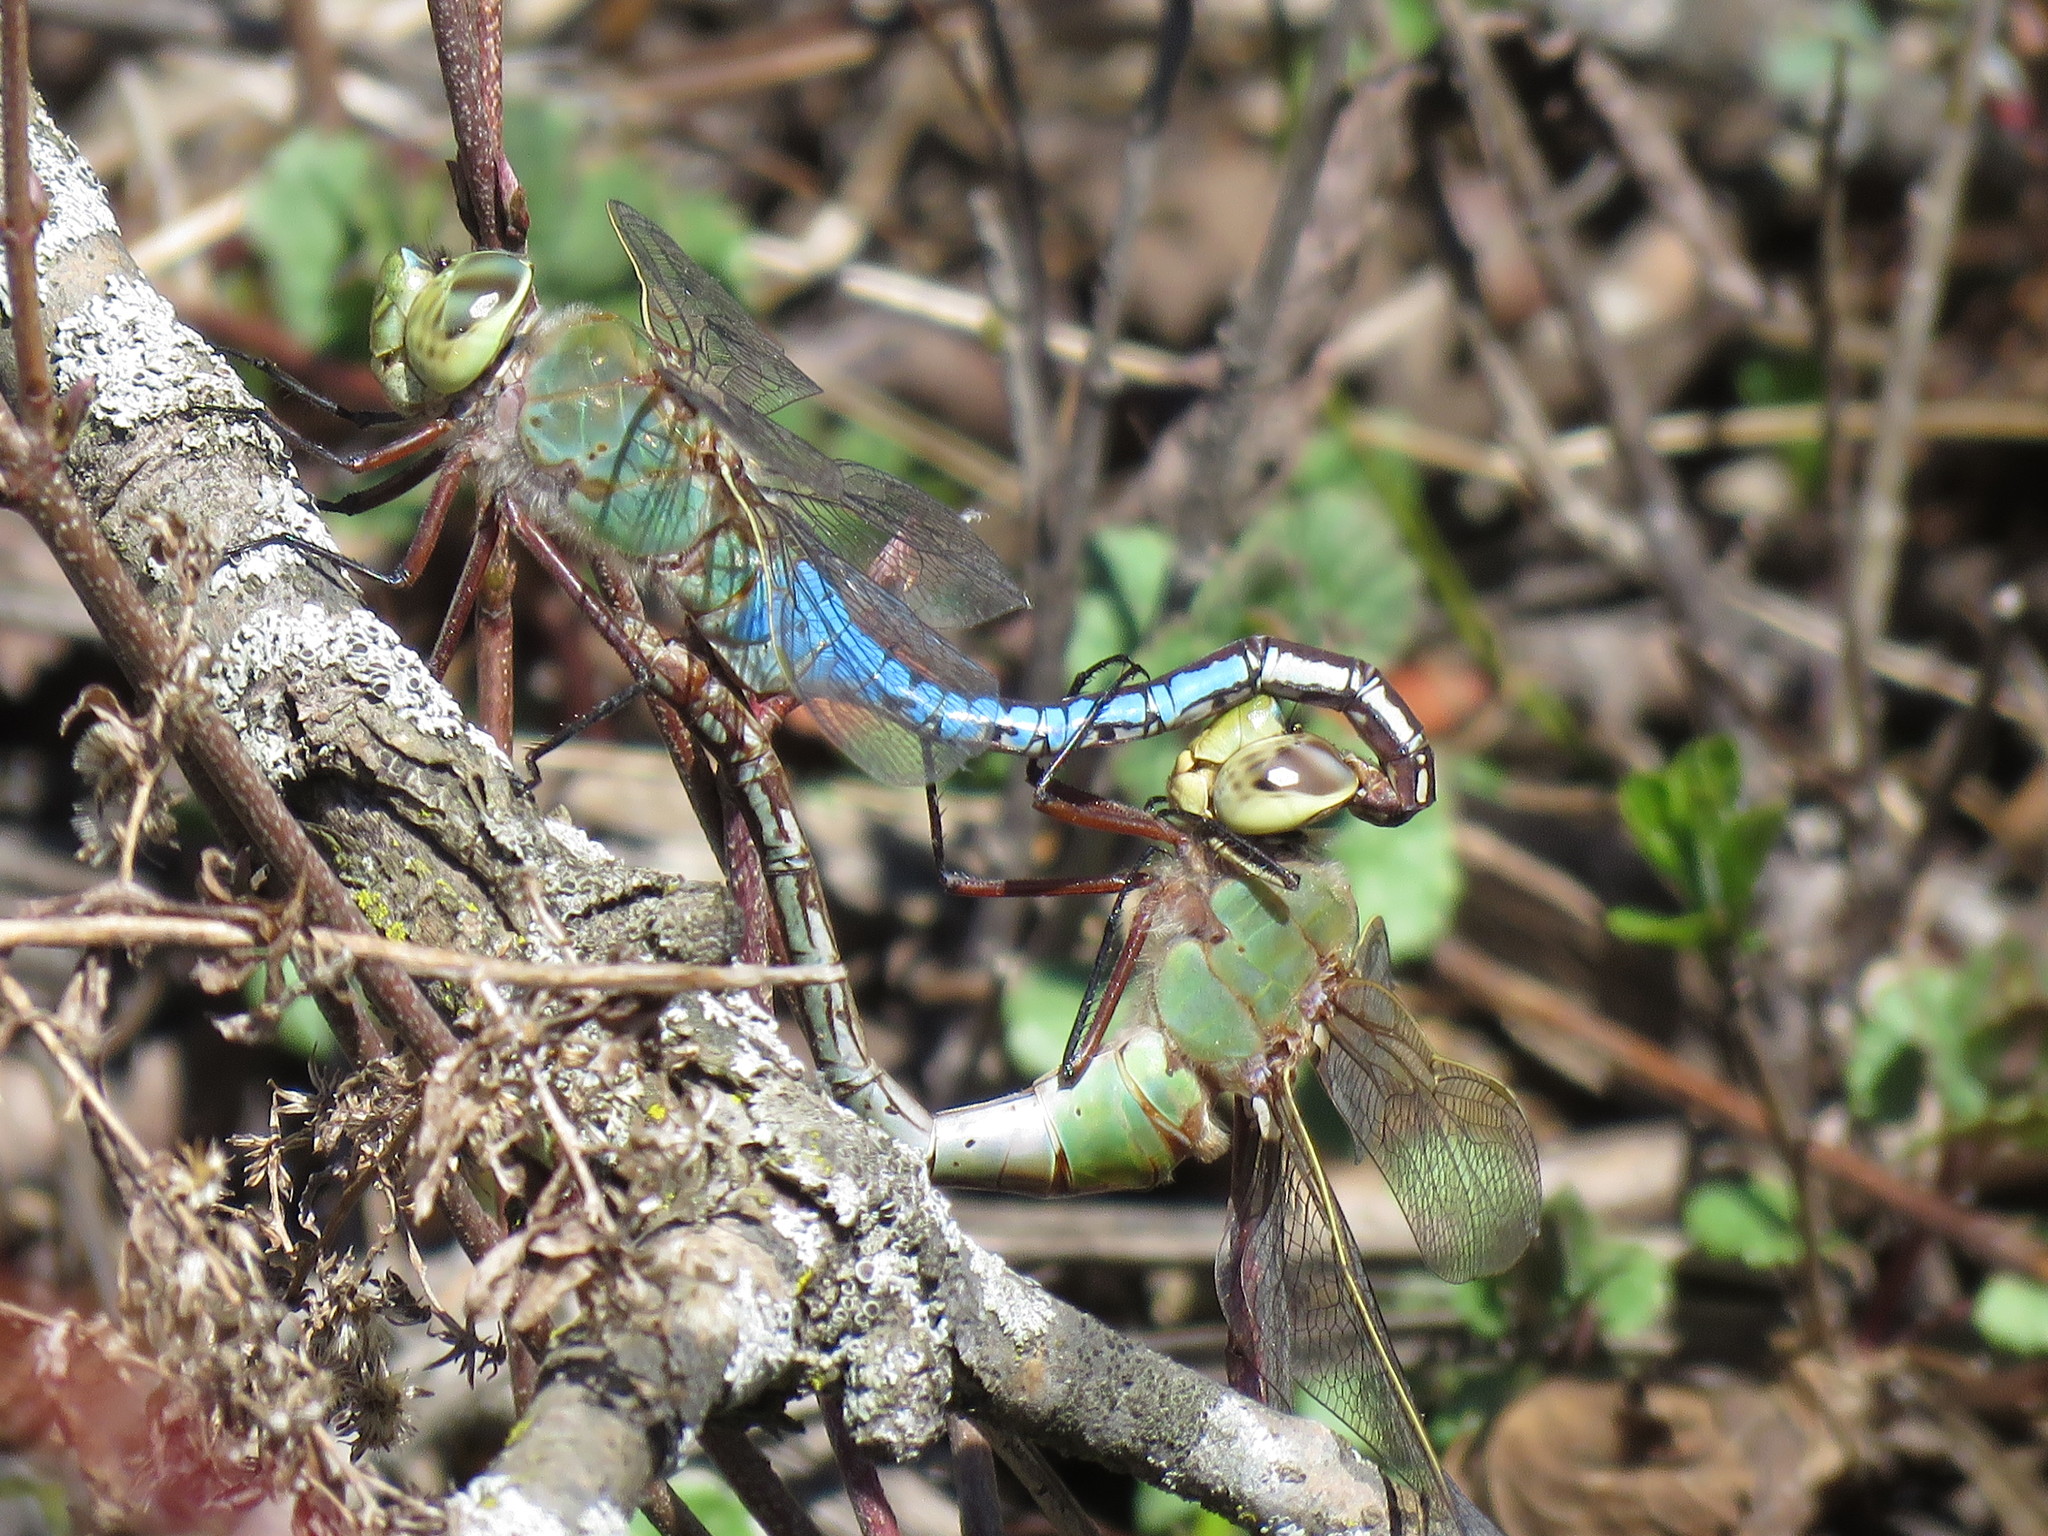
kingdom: Animalia
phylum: Arthropoda
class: Insecta
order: Odonata
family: Aeshnidae
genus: Anax
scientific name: Anax junius
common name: Common green darner
